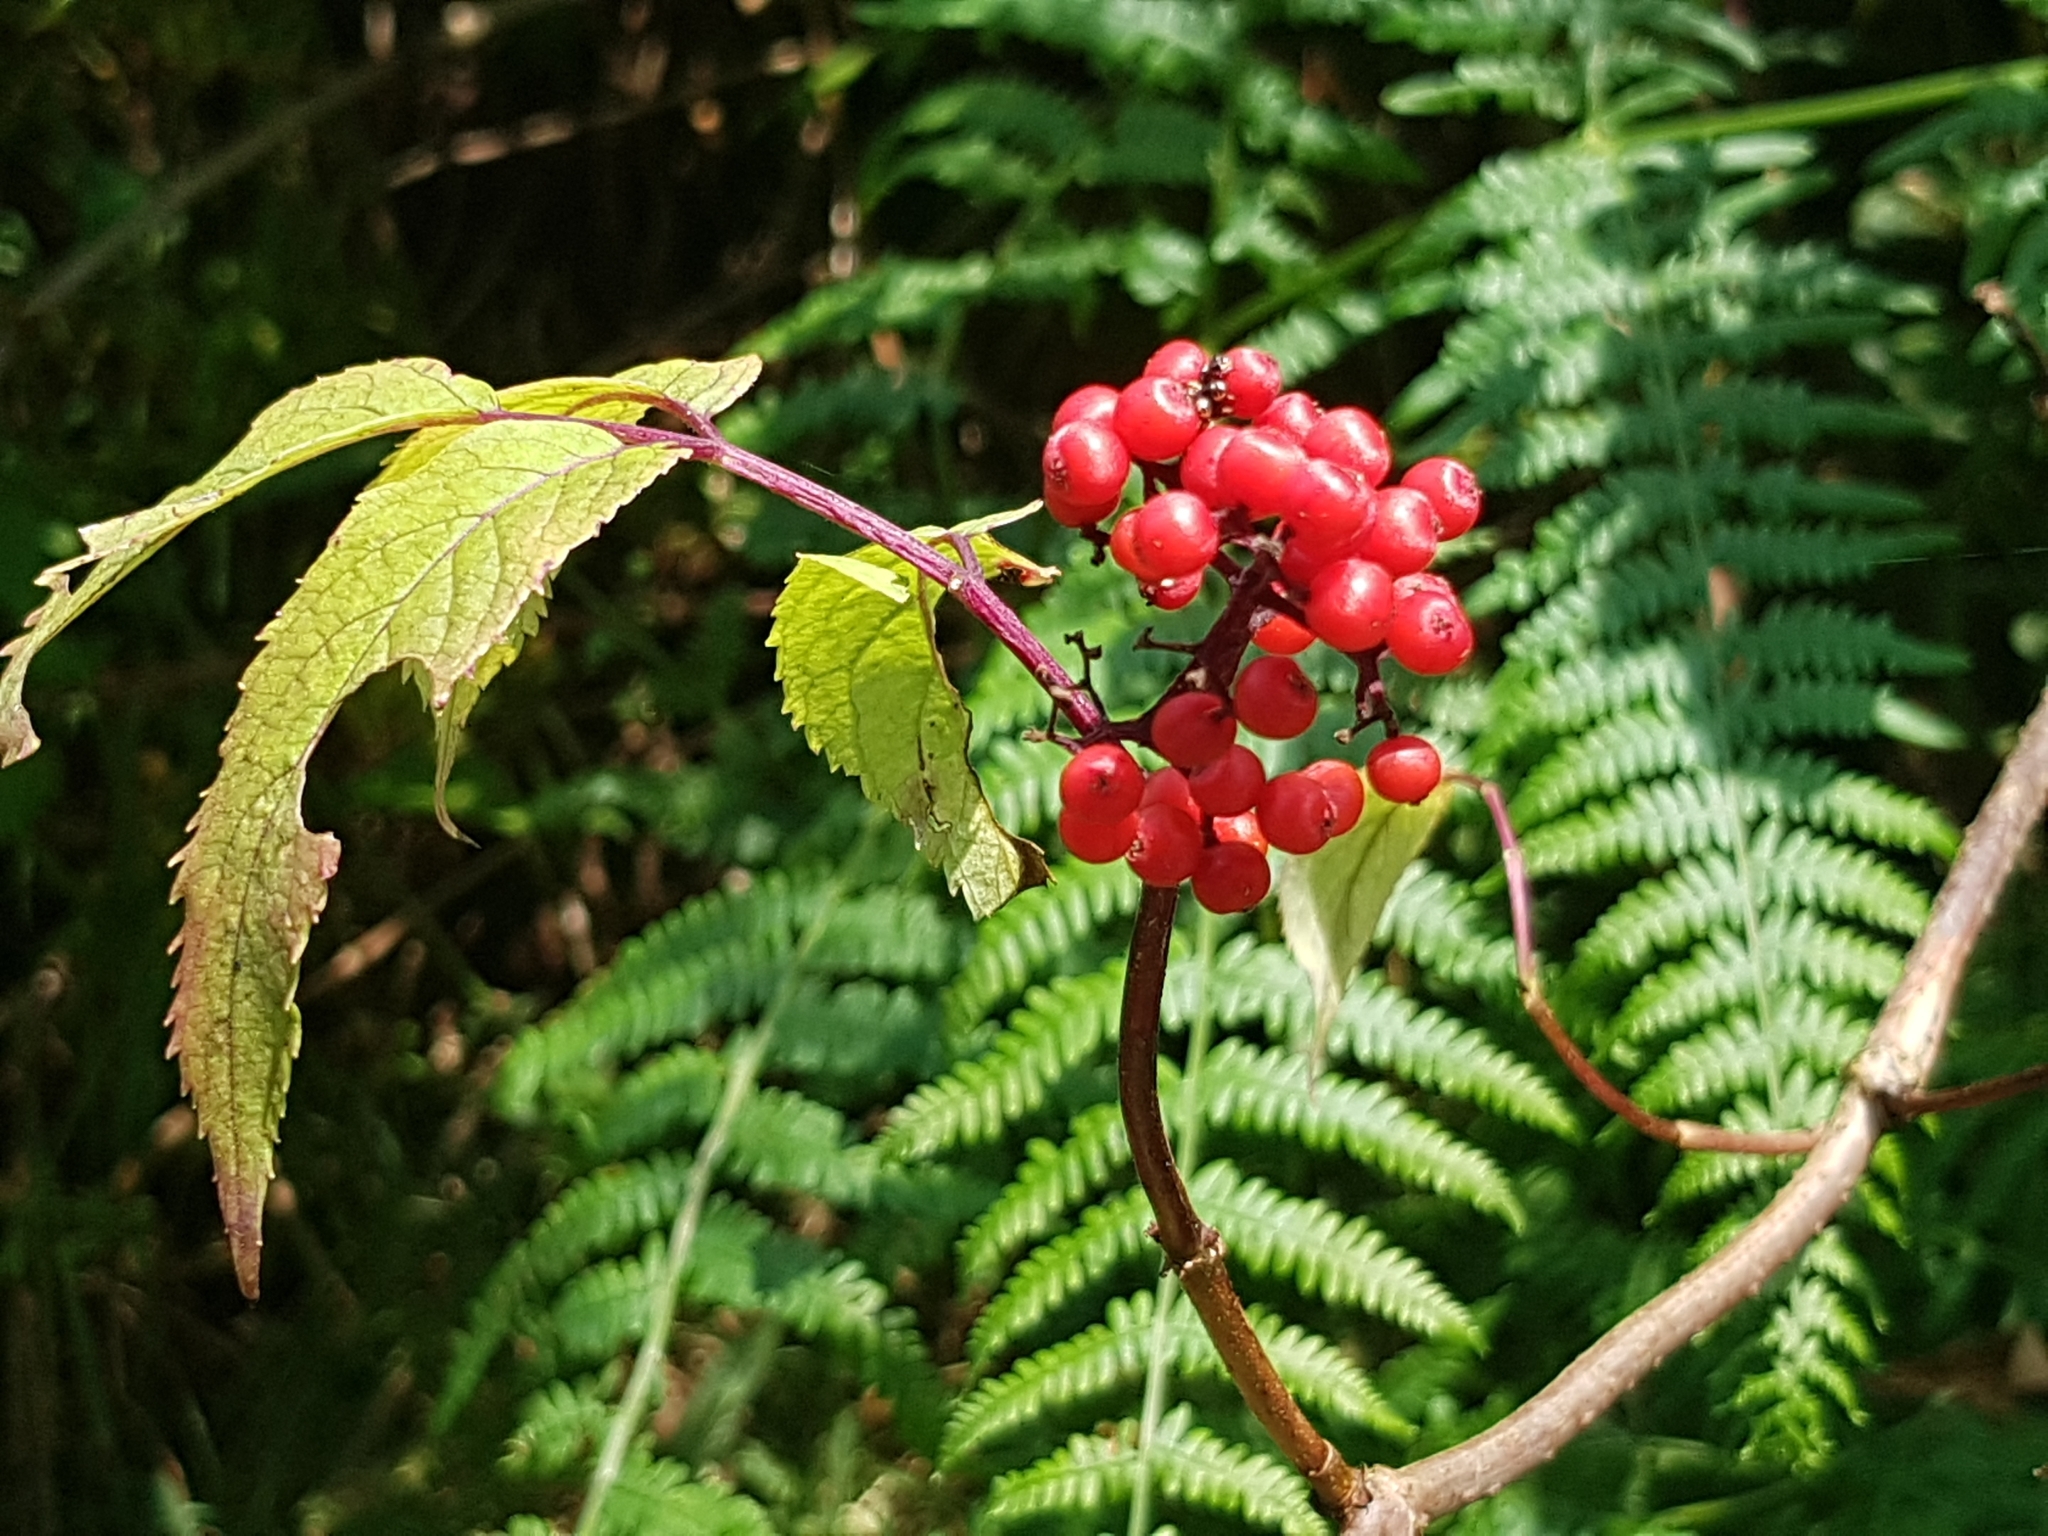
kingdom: Plantae
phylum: Tracheophyta
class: Magnoliopsida
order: Dipsacales
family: Viburnaceae
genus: Sambucus
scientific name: Sambucus racemosa
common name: Red-berried elder
